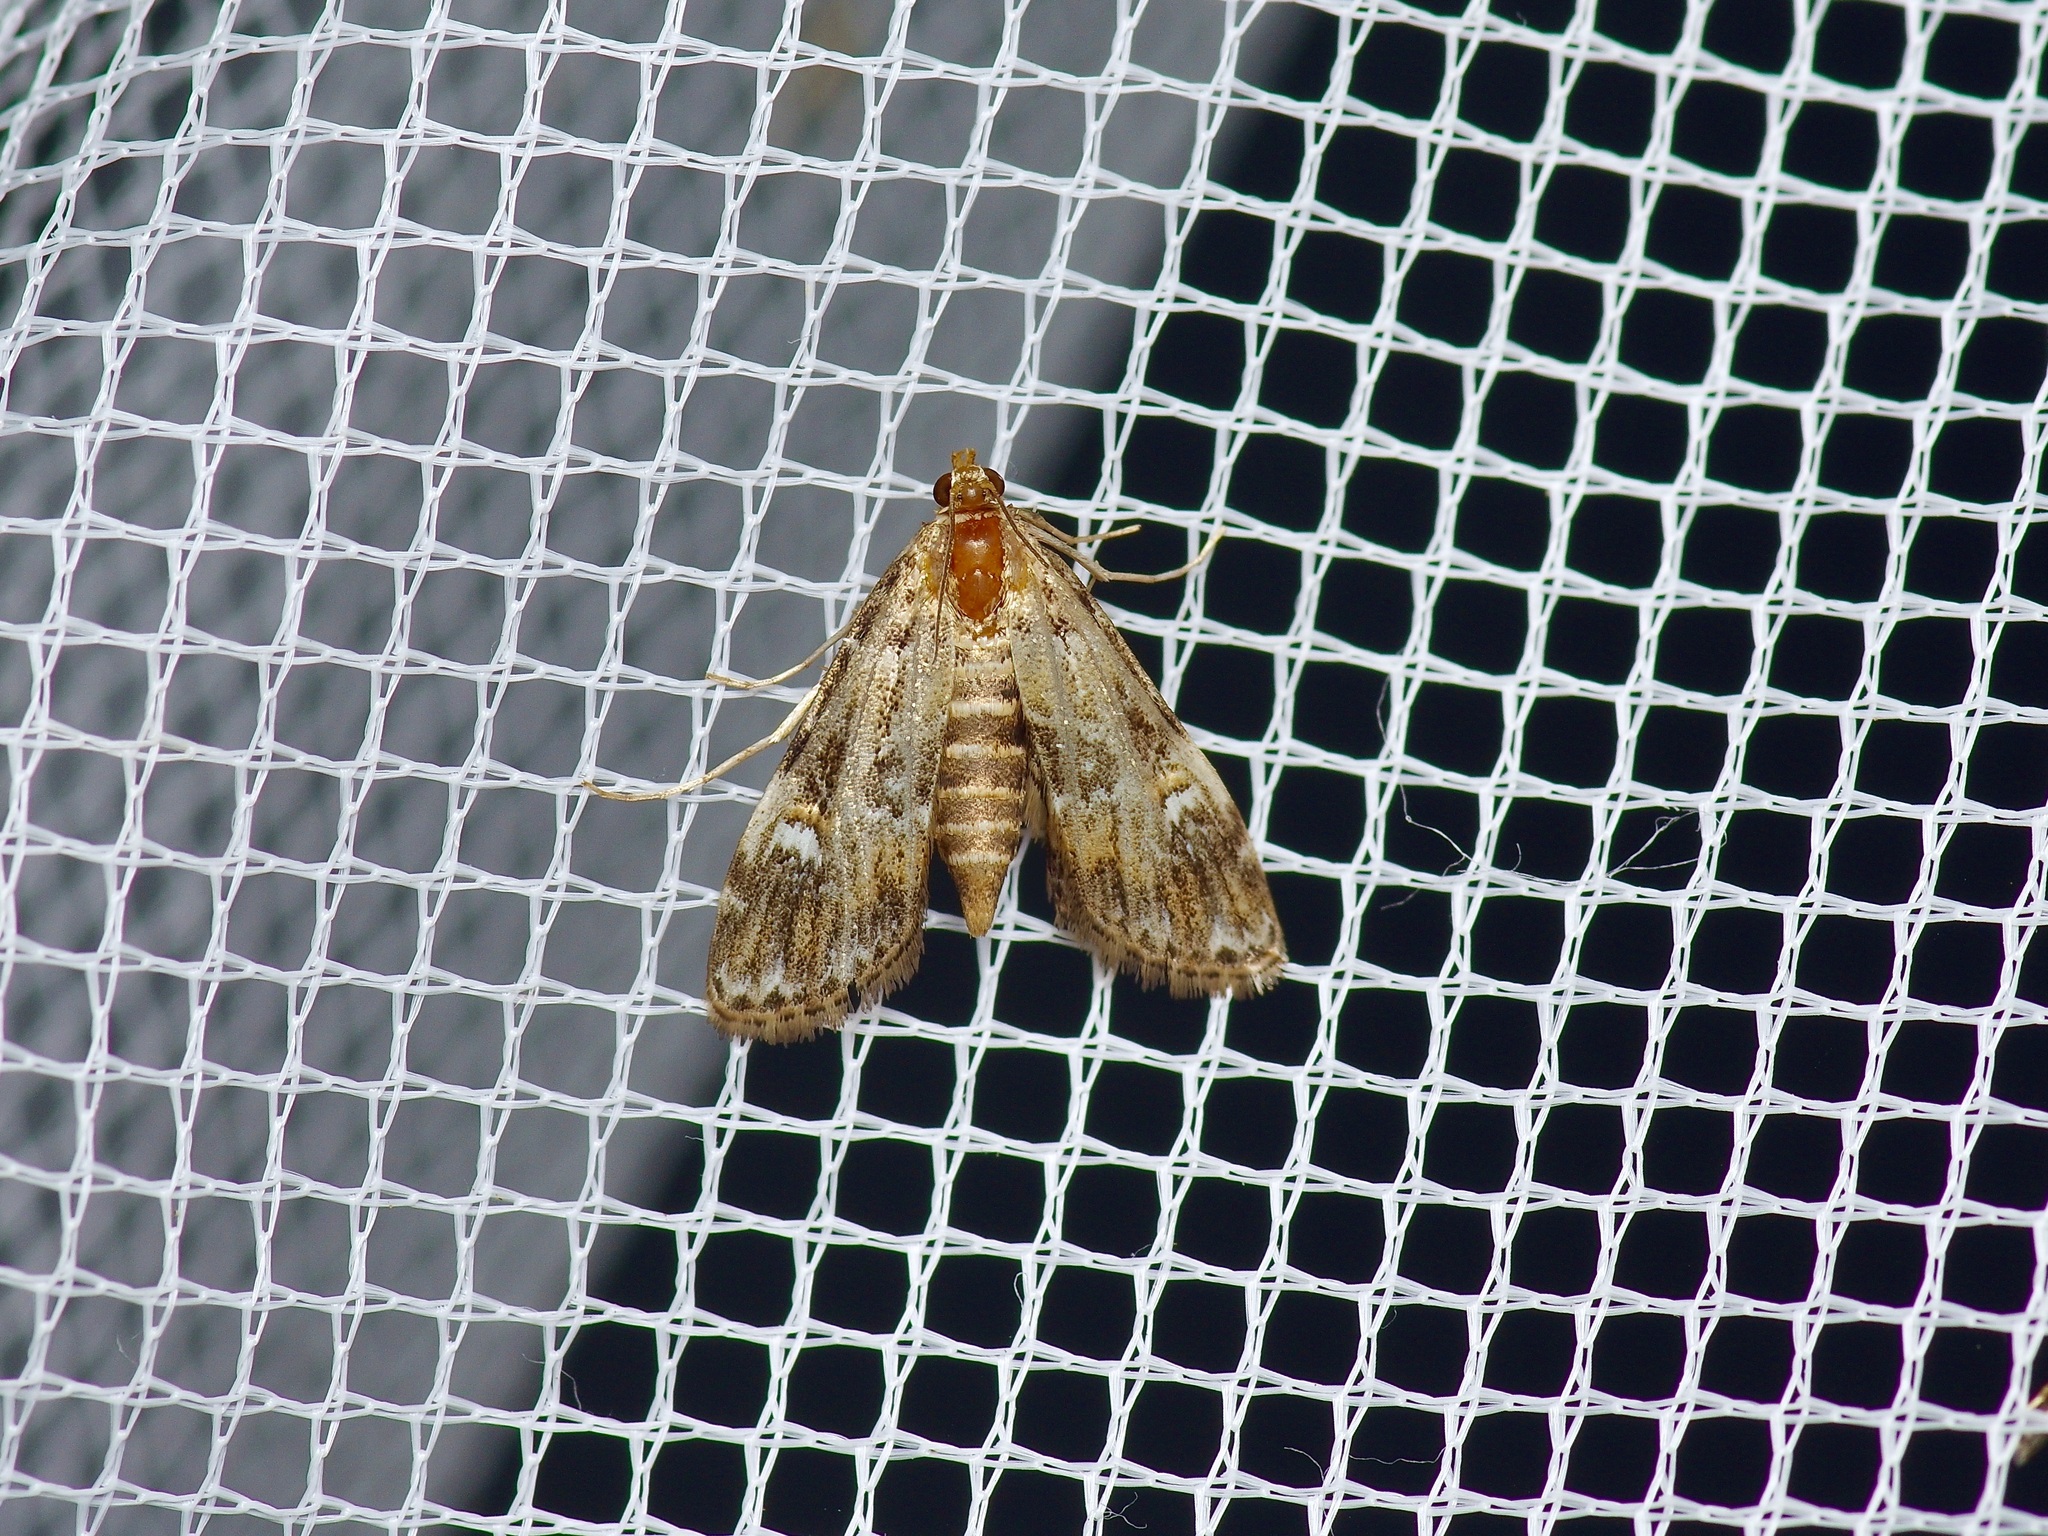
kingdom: Animalia
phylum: Arthropoda
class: Insecta
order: Lepidoptera
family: Crambidae
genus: Elophila
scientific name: Elophila obliteralis
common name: Waterlily leafcutter moth
